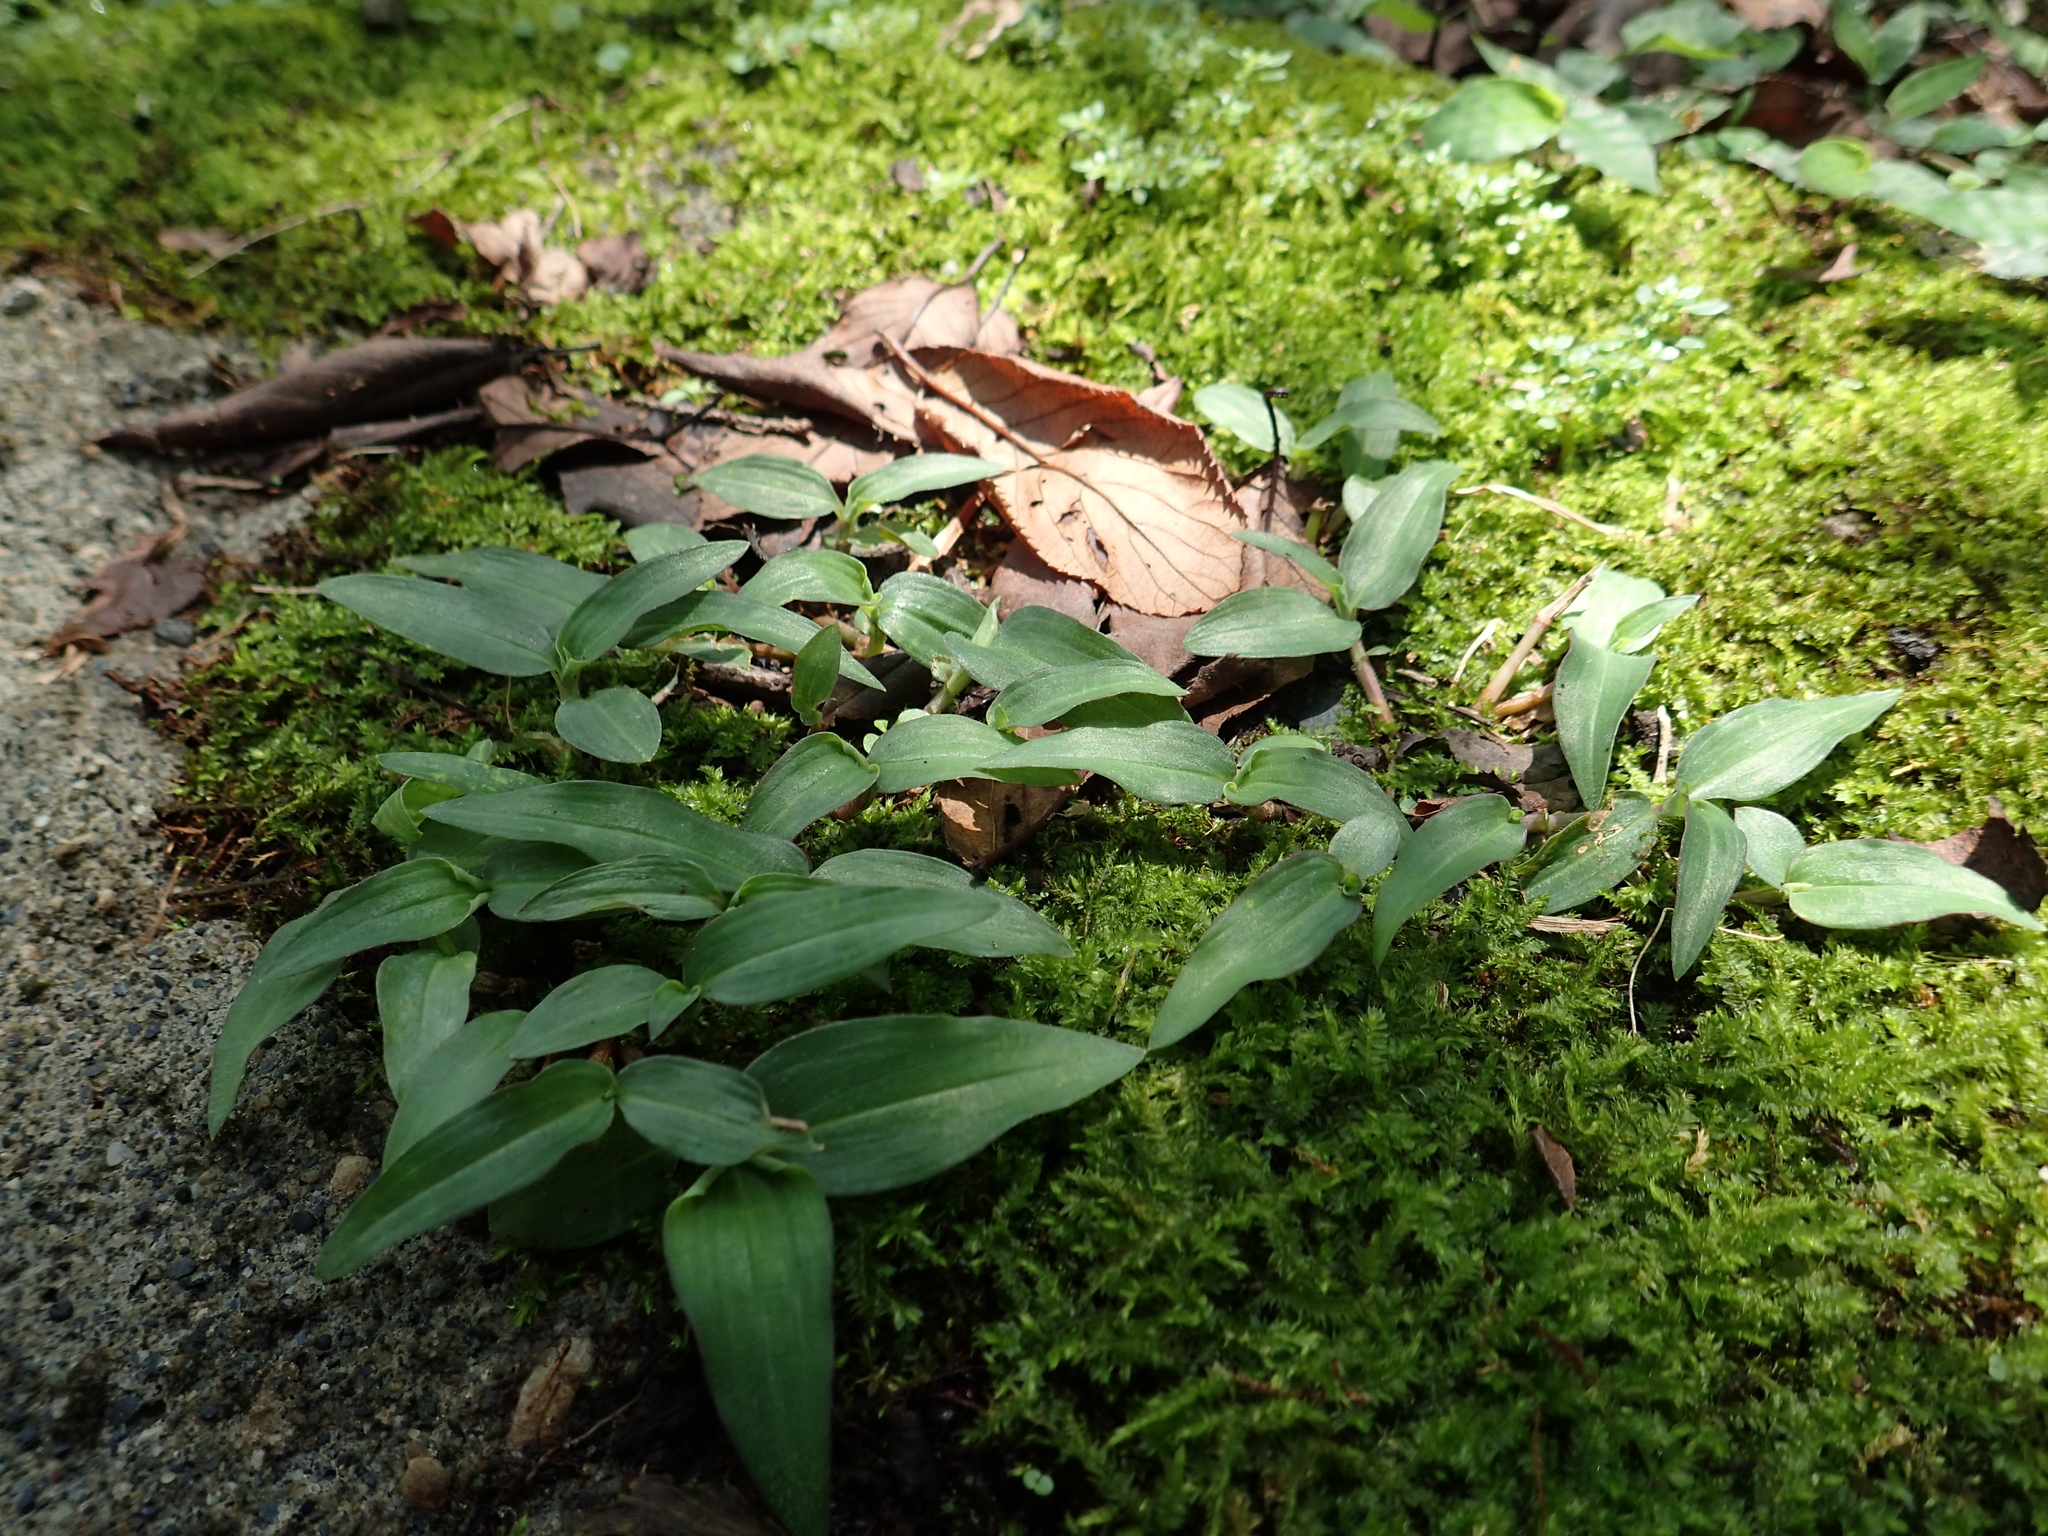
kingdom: Plantae
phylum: Tracheophyta
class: Liliopsida
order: Commelinales
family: Commelinaceae
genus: Murdannia
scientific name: Murdannia bracteata
